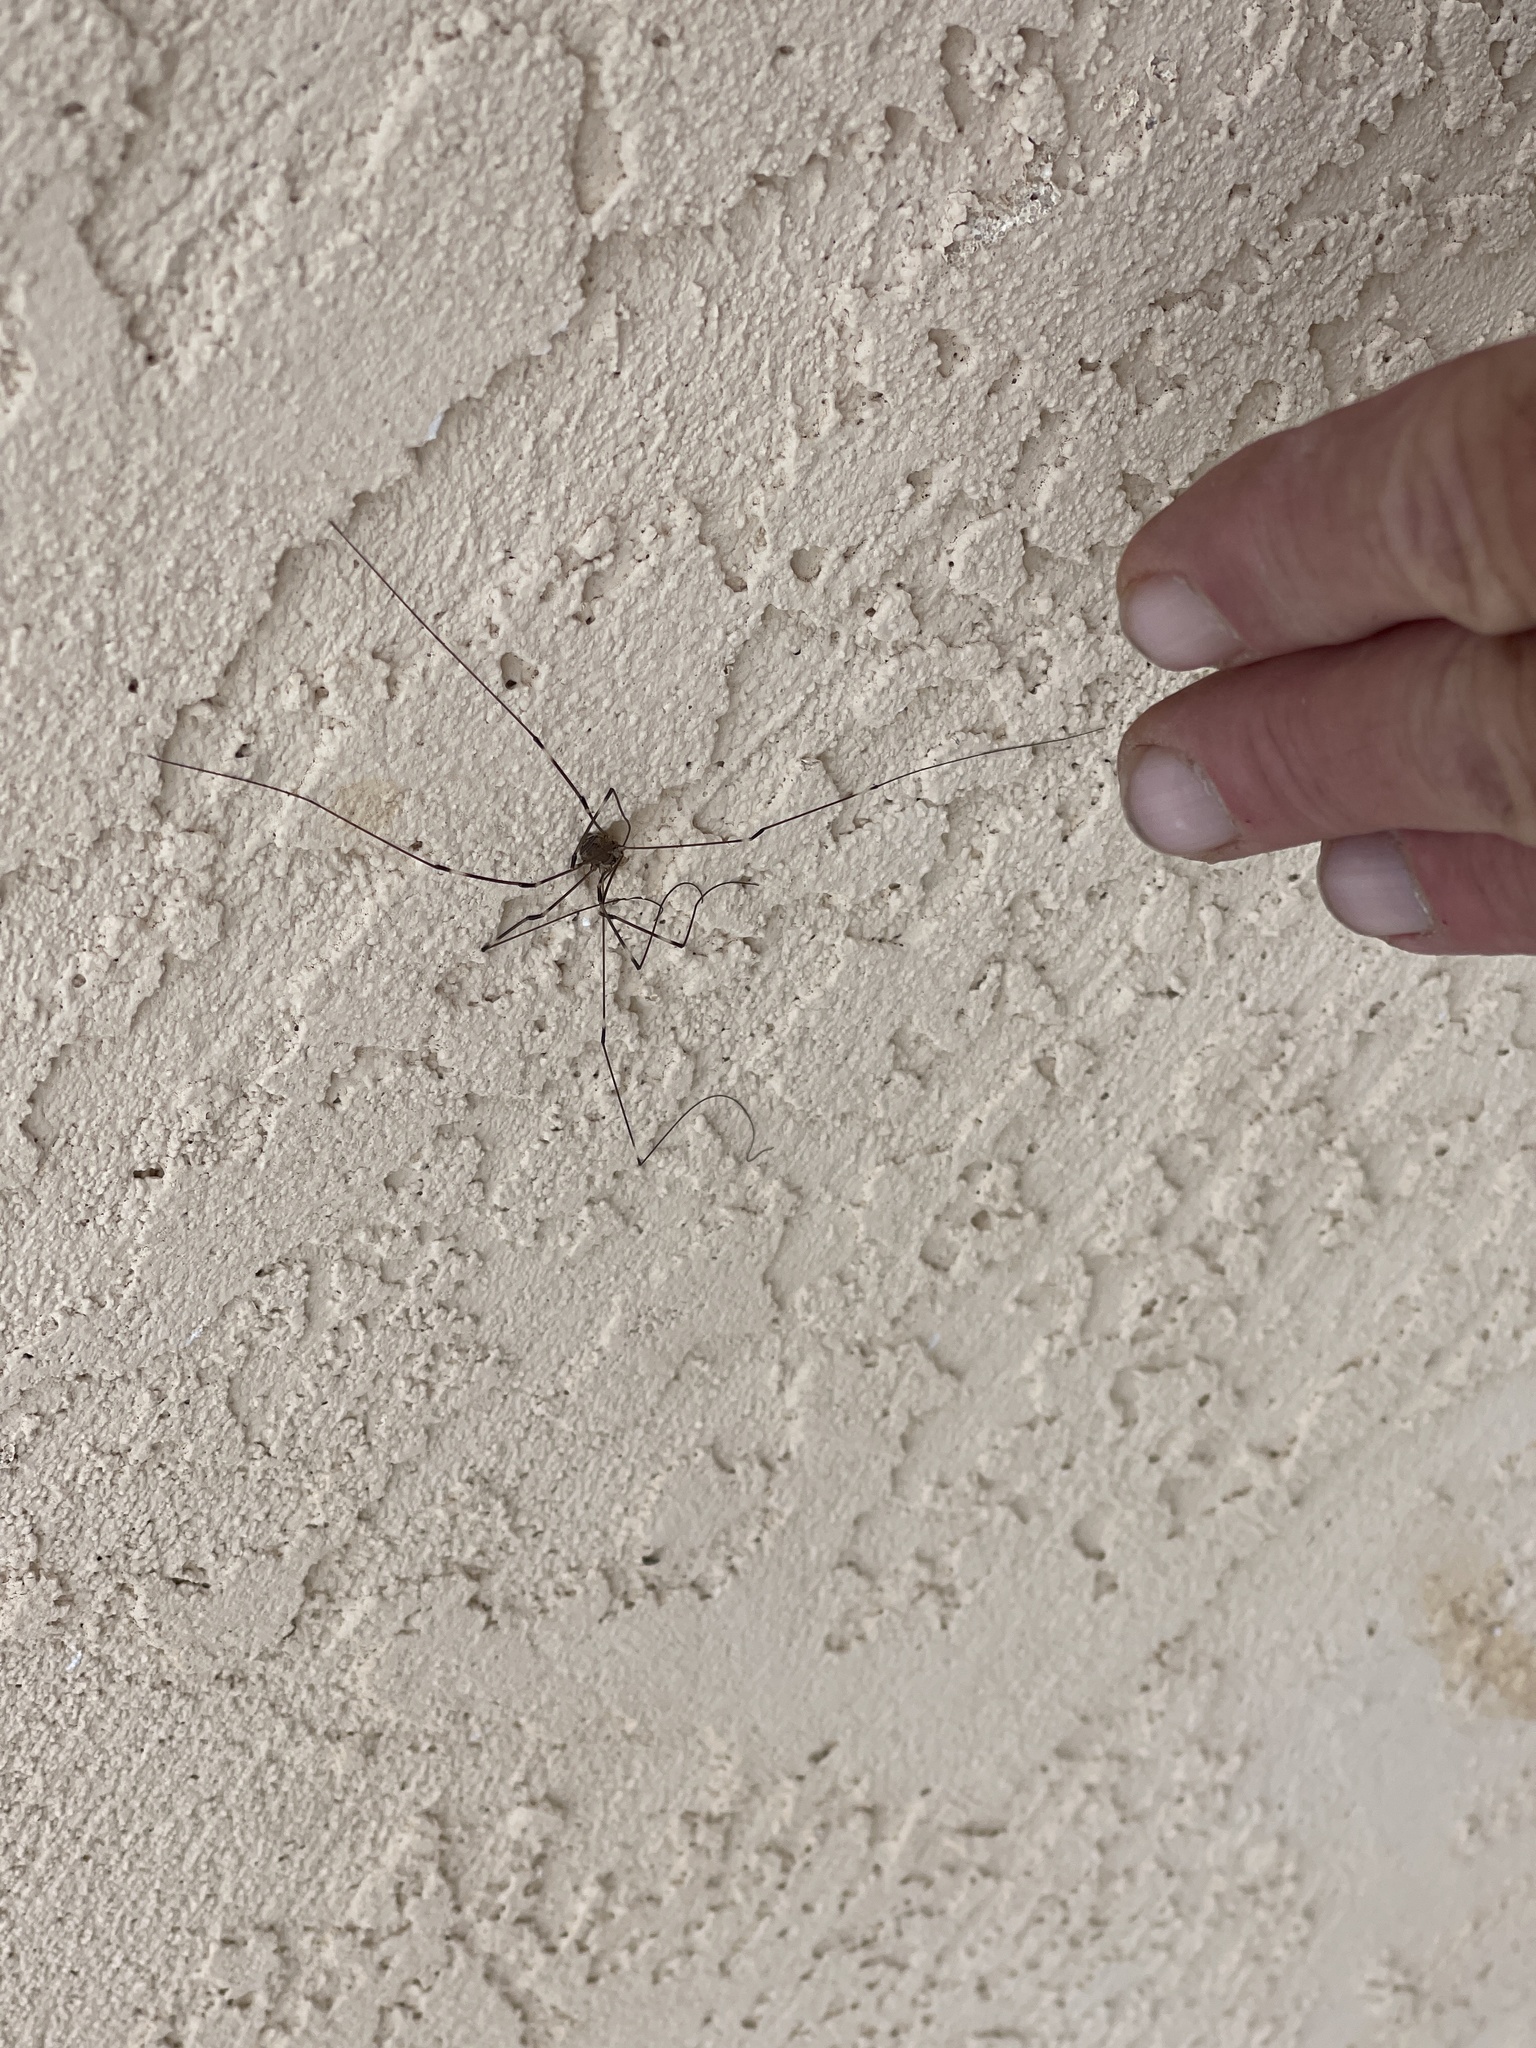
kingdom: Animalia
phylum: Arthropoda
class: Arachnida
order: Opiliones
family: Sclerosomatidae
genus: Leiobunum
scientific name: Leiobunum townsendi
